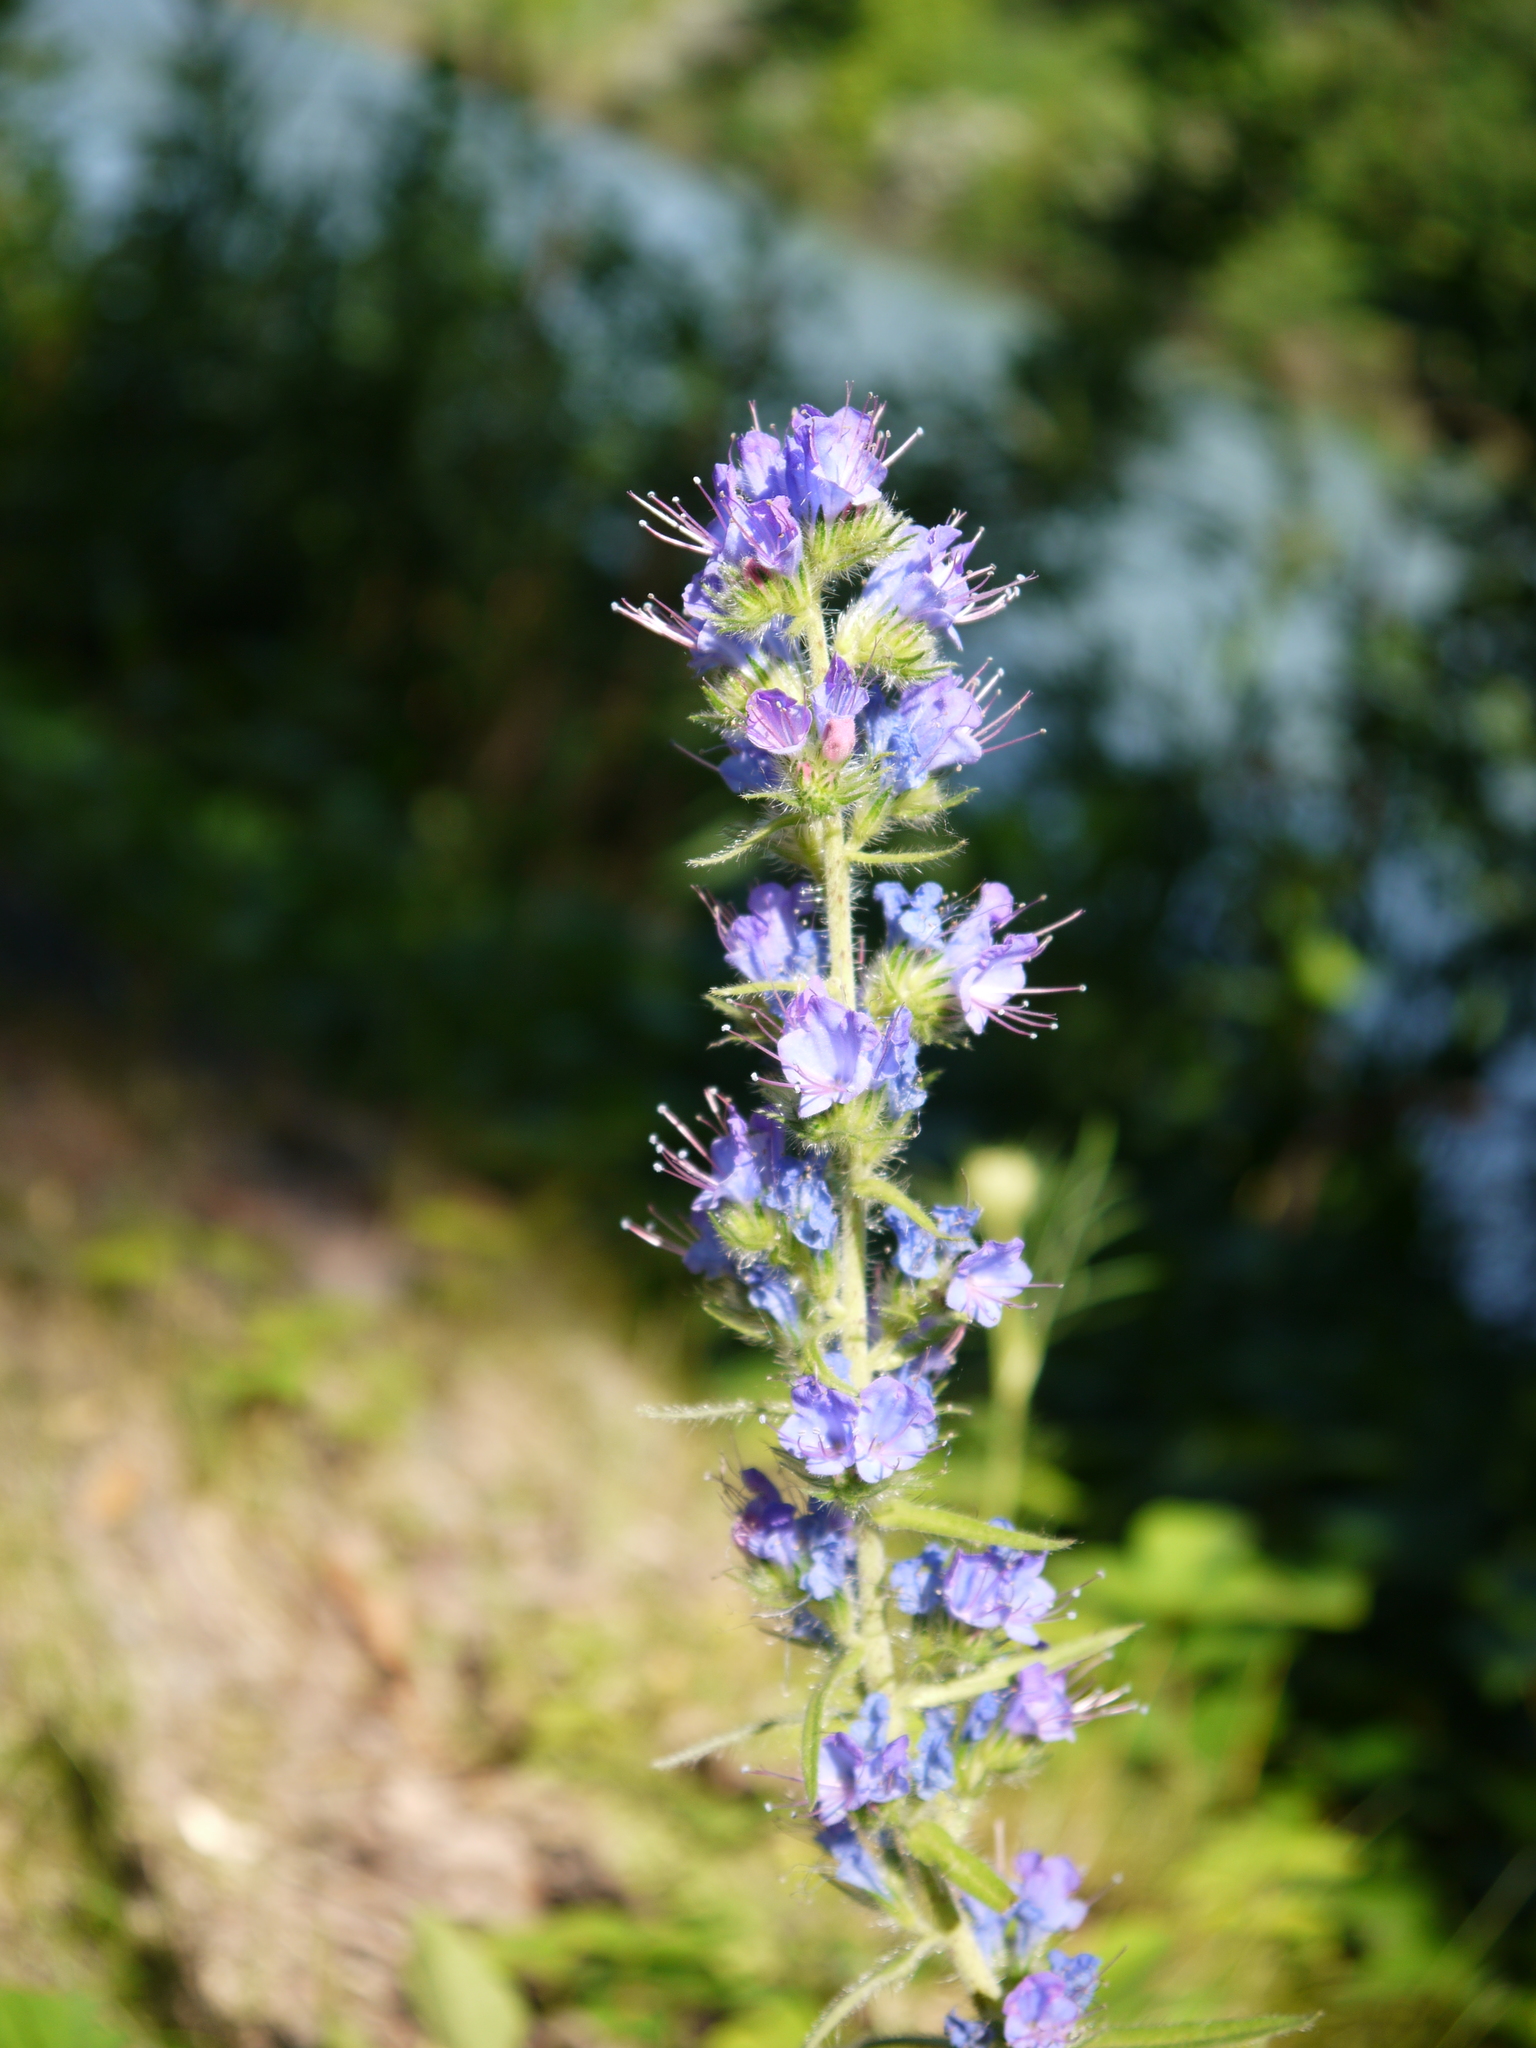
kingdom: Plantae
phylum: Tracheophyta
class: Magnoliopsida
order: Boraginales
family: Boraginaceae
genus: Echium
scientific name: Echium vulgare
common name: Common viper's bugloss
